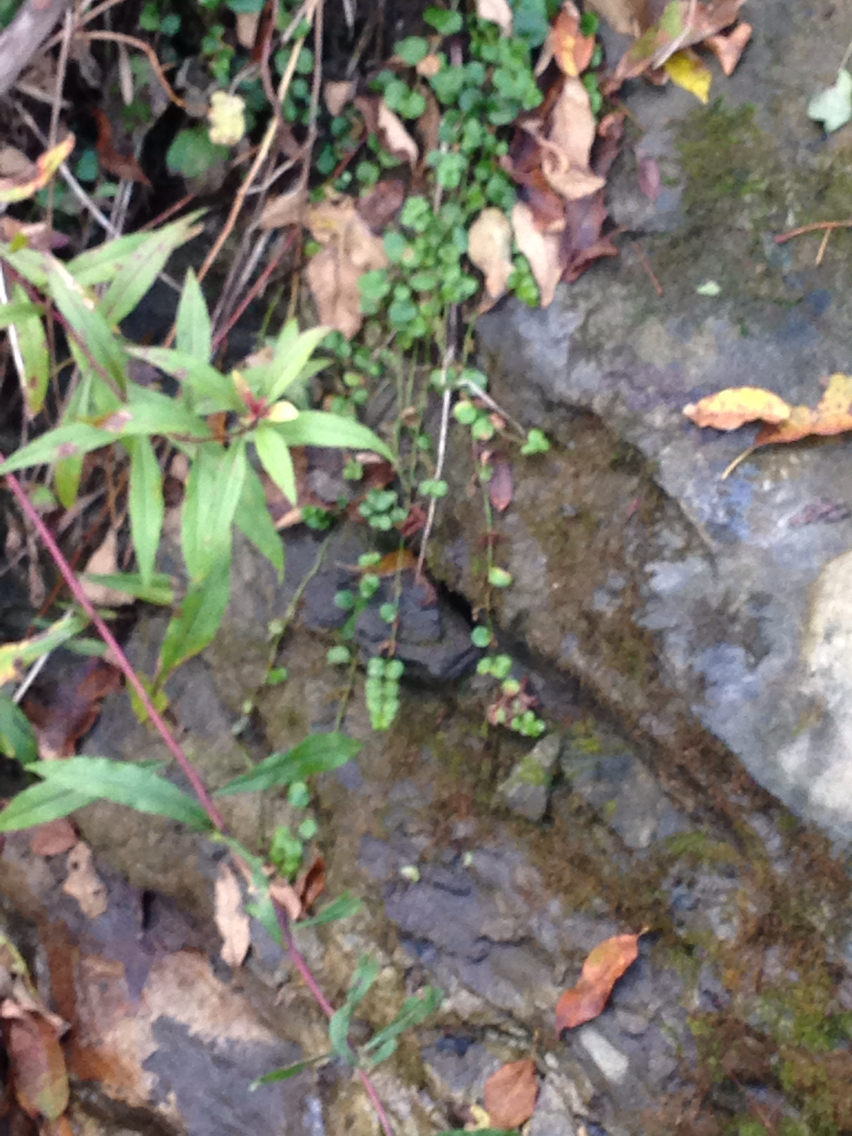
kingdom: Plantae
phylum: Tracheophyta
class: Magnoliopsida
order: Ericales
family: Primulaceae
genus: Lysimachia
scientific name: Lysimachia nummularia
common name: Moneywort
